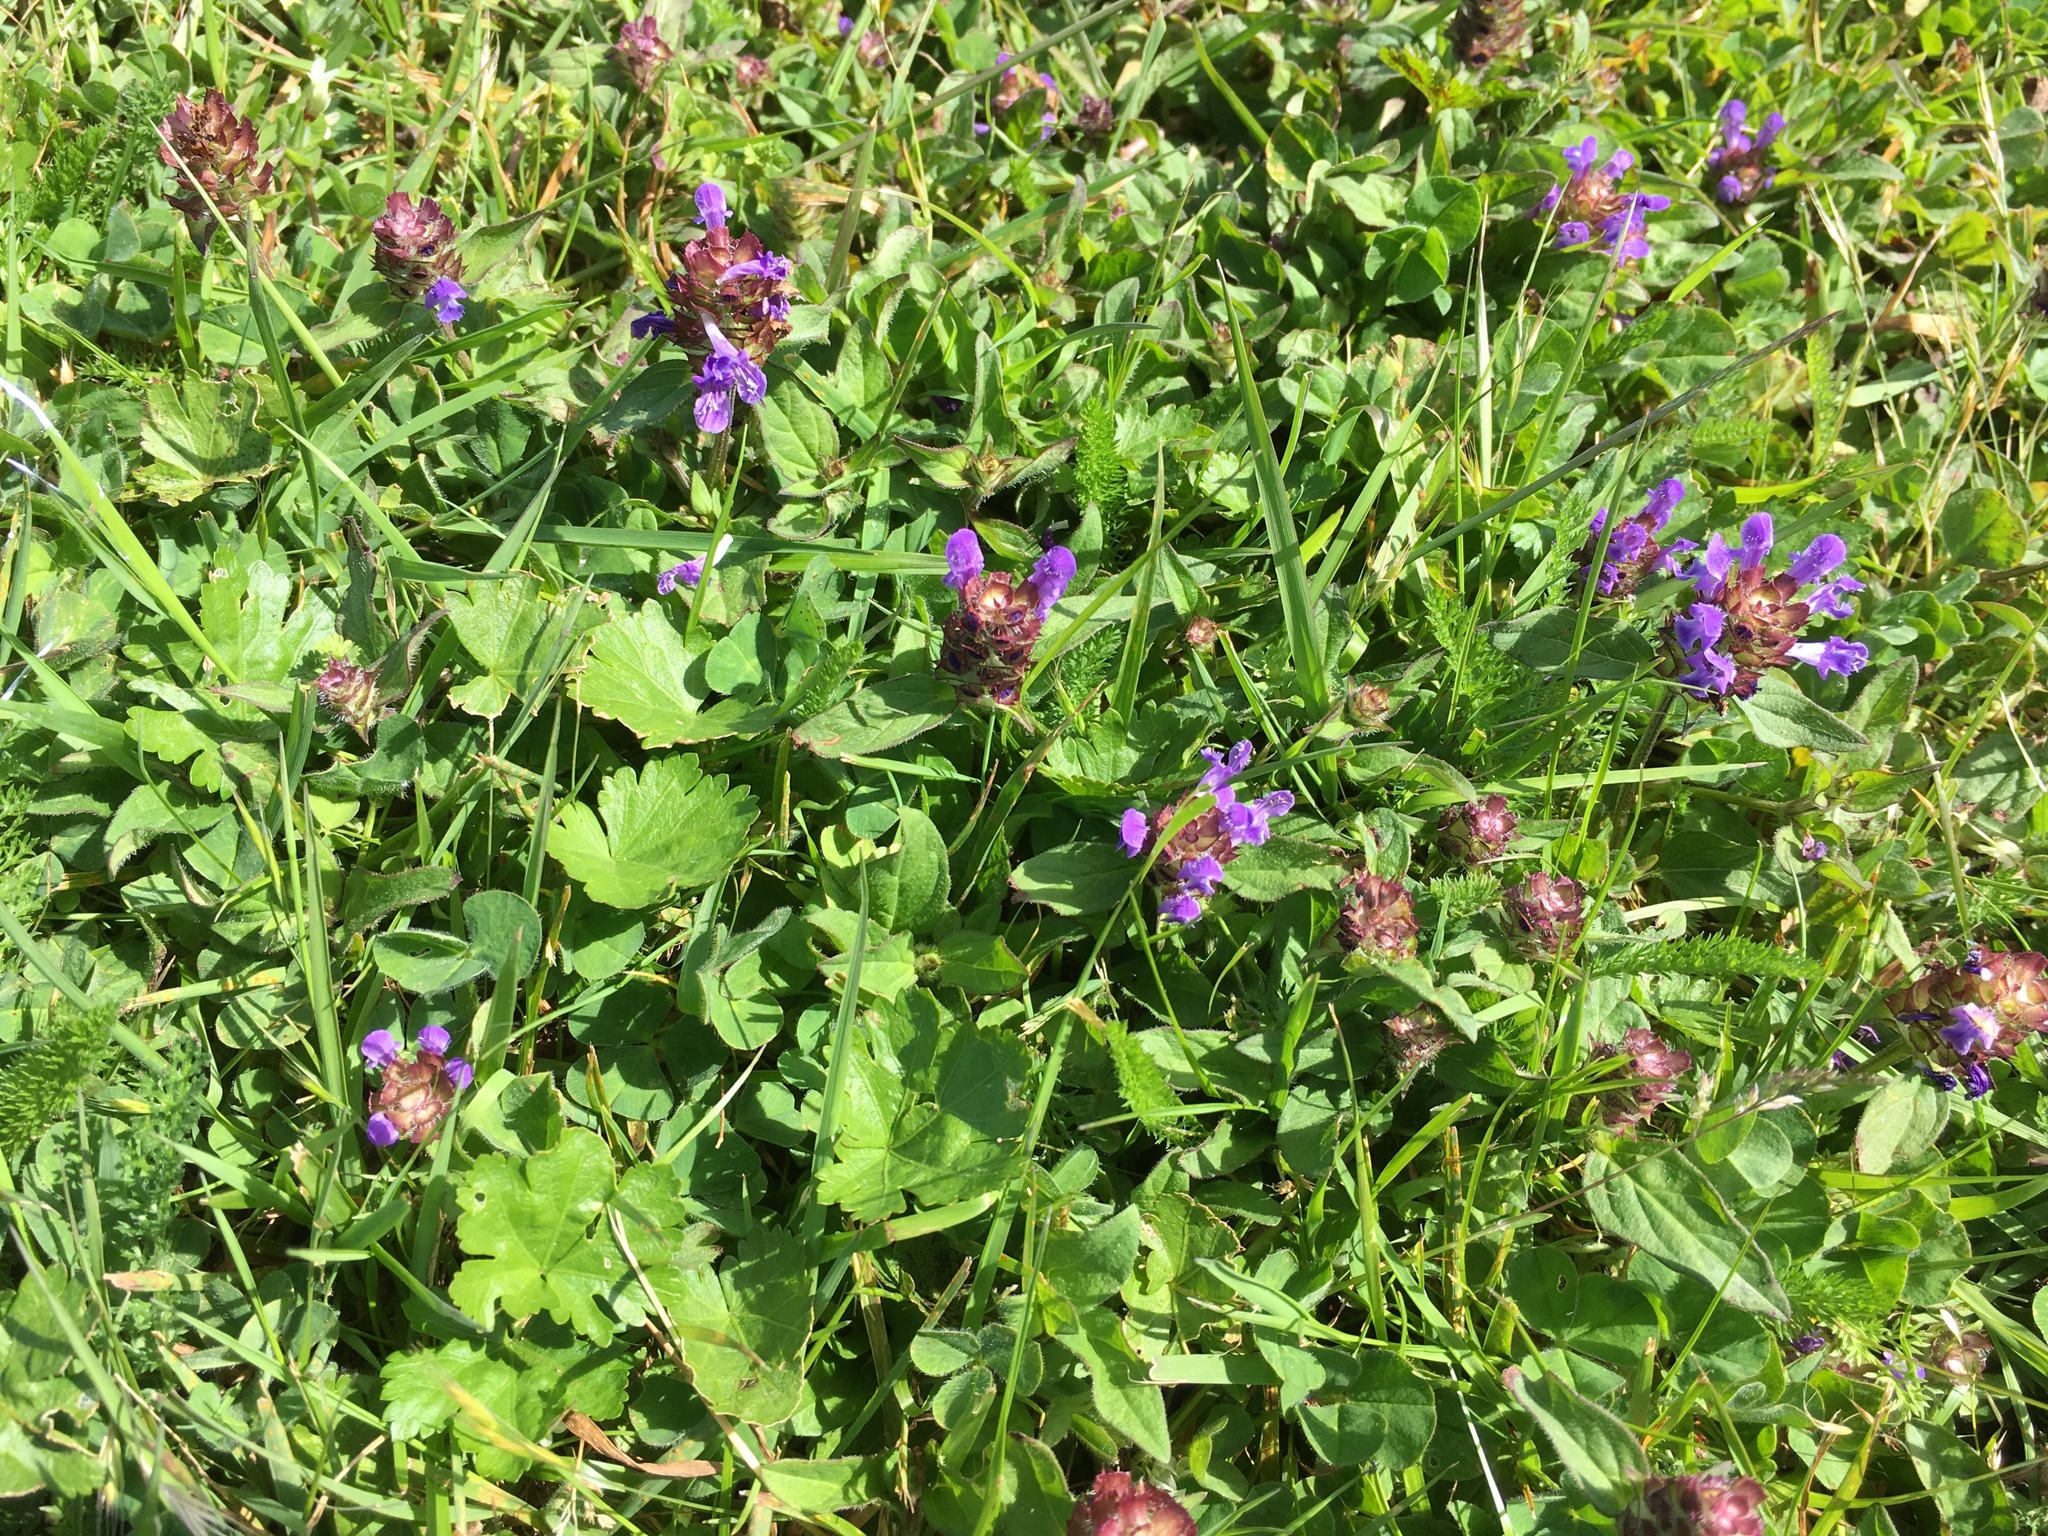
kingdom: Plantae
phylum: Tracheophyta
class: Magnoliopsida
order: Lamiales
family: Lamiaceae
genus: Prunella
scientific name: Prunella vulgaris
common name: Heal-all
